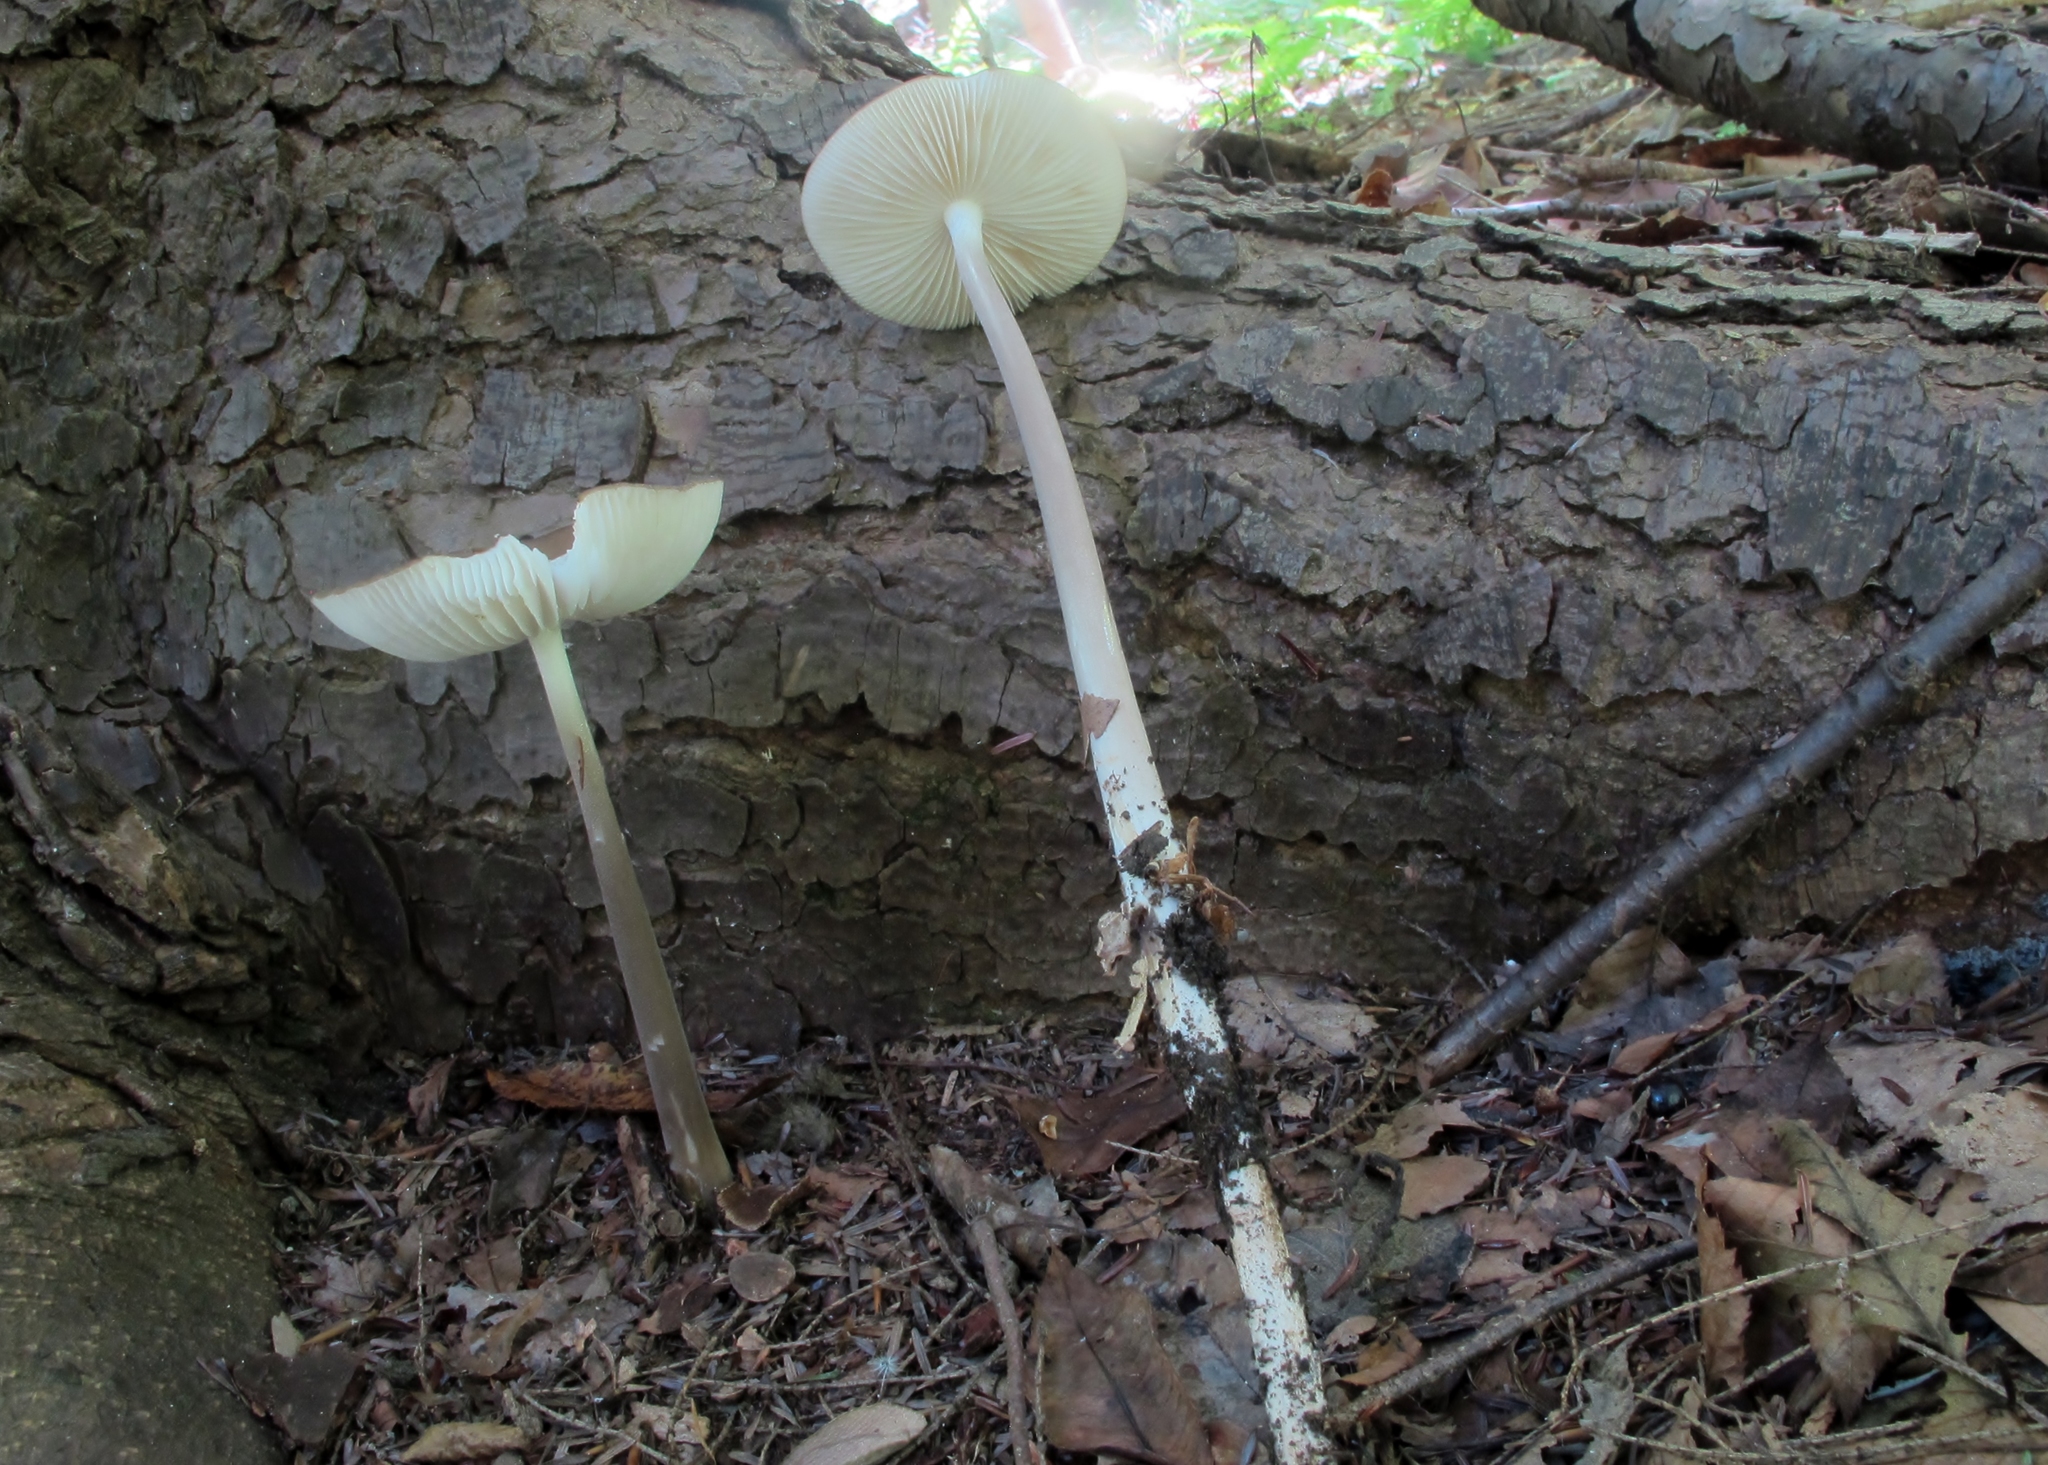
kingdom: Fungi
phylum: Basidiomycota
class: Agaricomycetes
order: Agaricales
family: Physalacriaceae
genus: Hymenopellis
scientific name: Hymenopellis furfuracea
